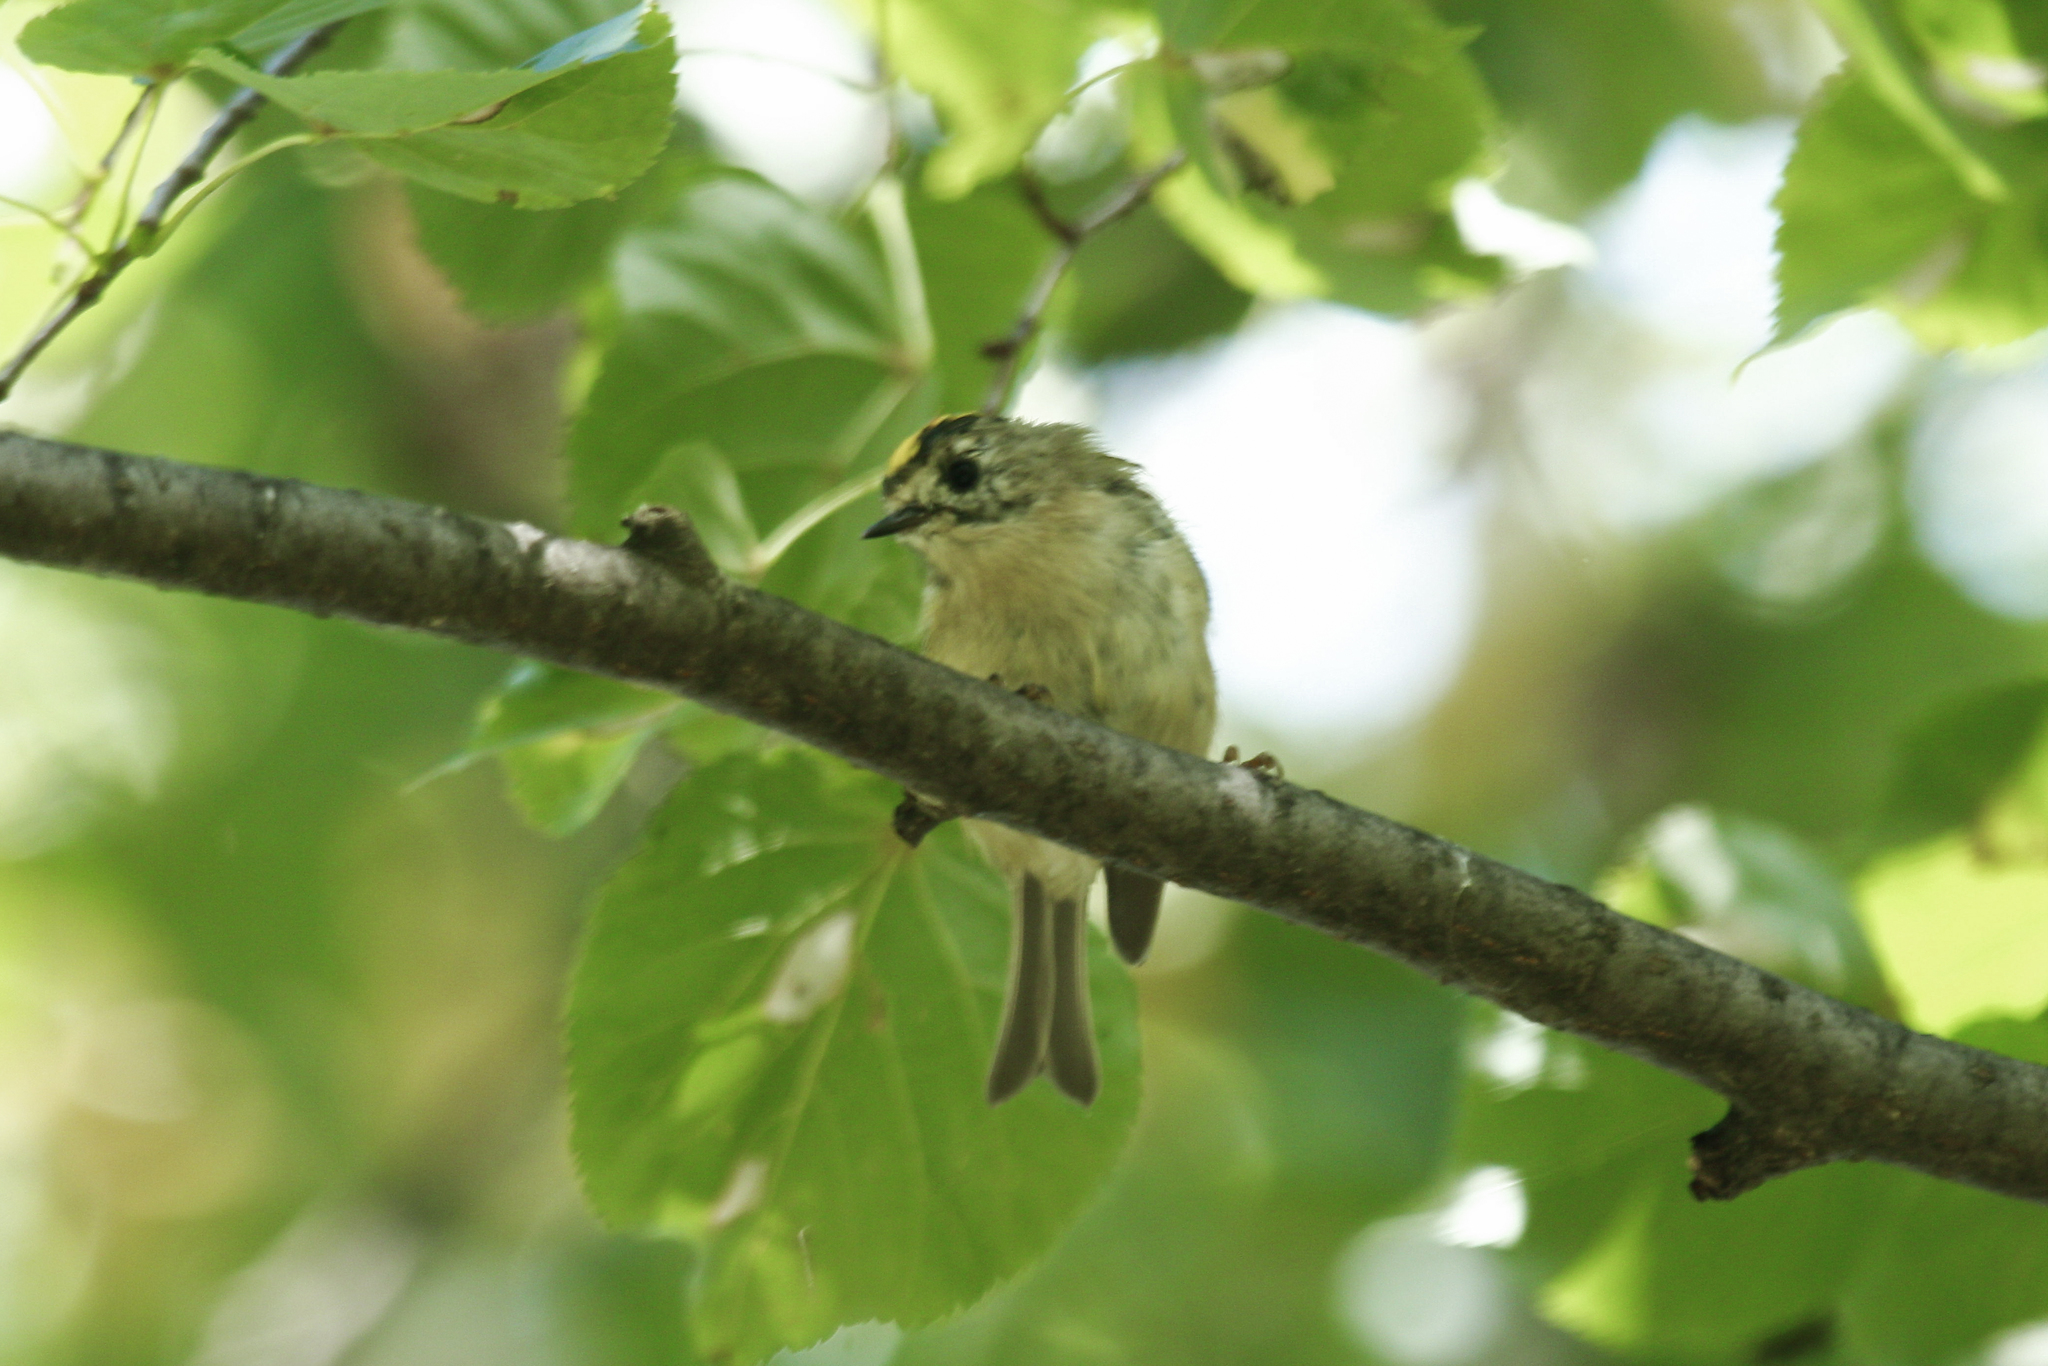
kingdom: Animalia
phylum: Chordata
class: Aves
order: Passeriformes
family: Regulidae
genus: Regulus
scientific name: Regulus regulus
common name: Goldcrest
